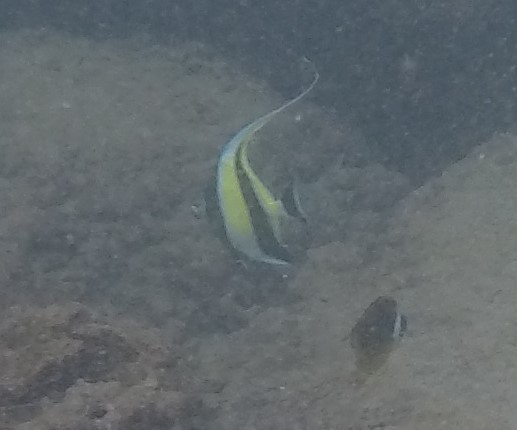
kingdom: Animalia
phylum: Chordata
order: Perciformes
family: Zanclidae
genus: Zanclus
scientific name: Zanclus cornutus
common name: Moorish idol
